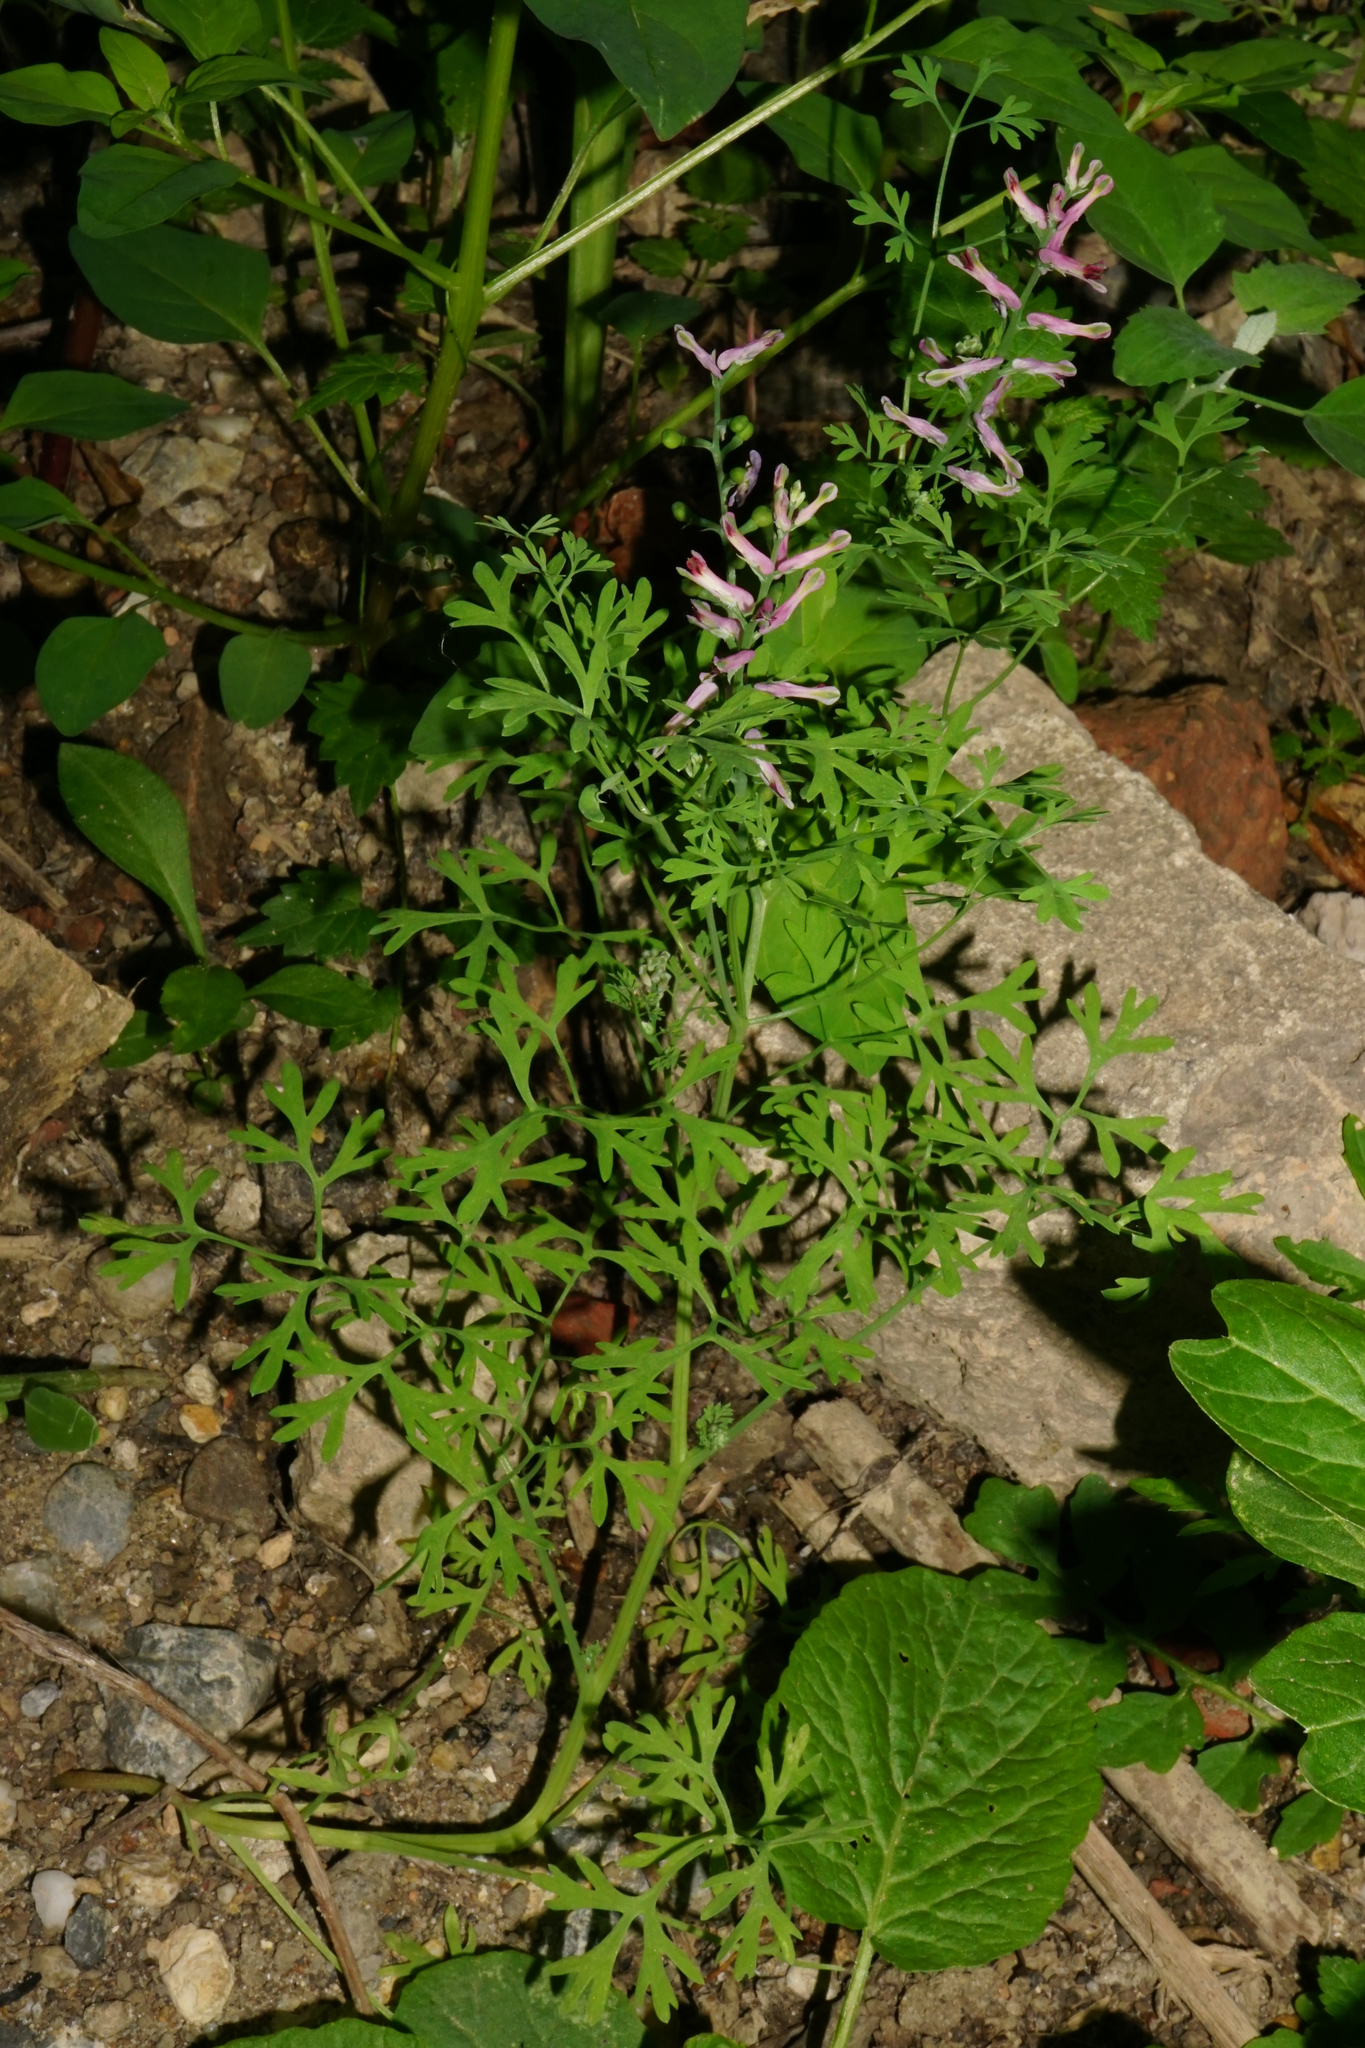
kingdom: Plantae
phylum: Tracheophyta
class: Magnoliopsida
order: Ranunculales
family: Papaveraceae
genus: Fumaria
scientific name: Fumaria officinalis
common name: Common fumitory
